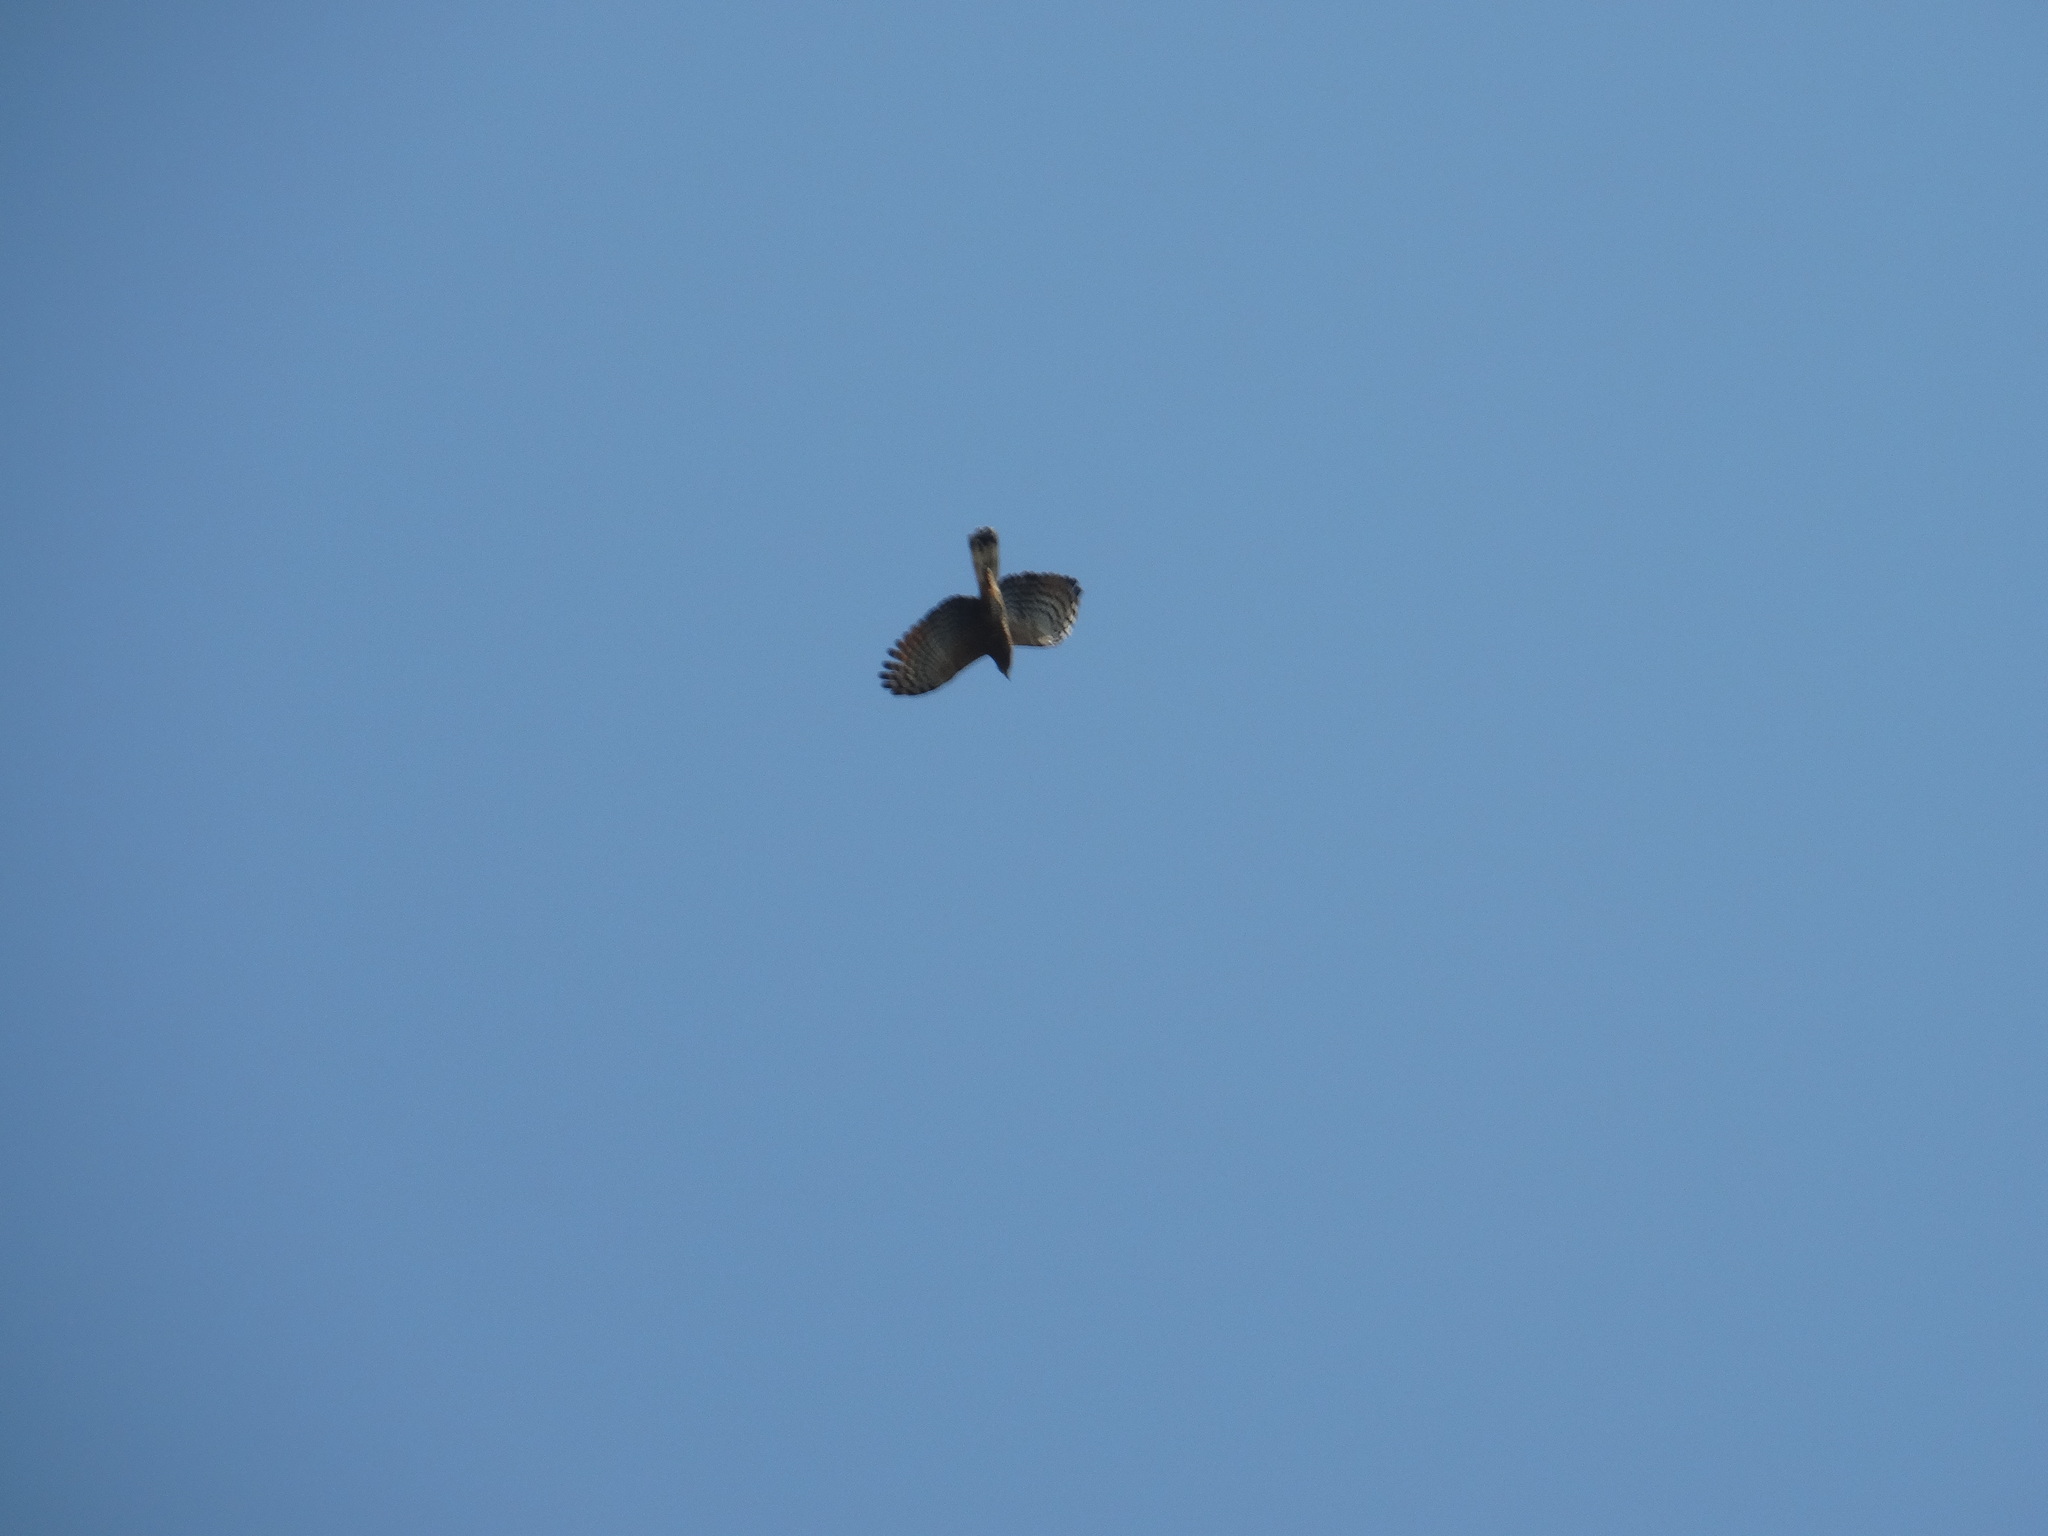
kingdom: Animalia
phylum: Chordata
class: Aves
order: Accipitriformes
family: Accipitridae
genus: Chondrohierax
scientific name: Chondrohierax uncinatus
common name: Hook-billed kite
